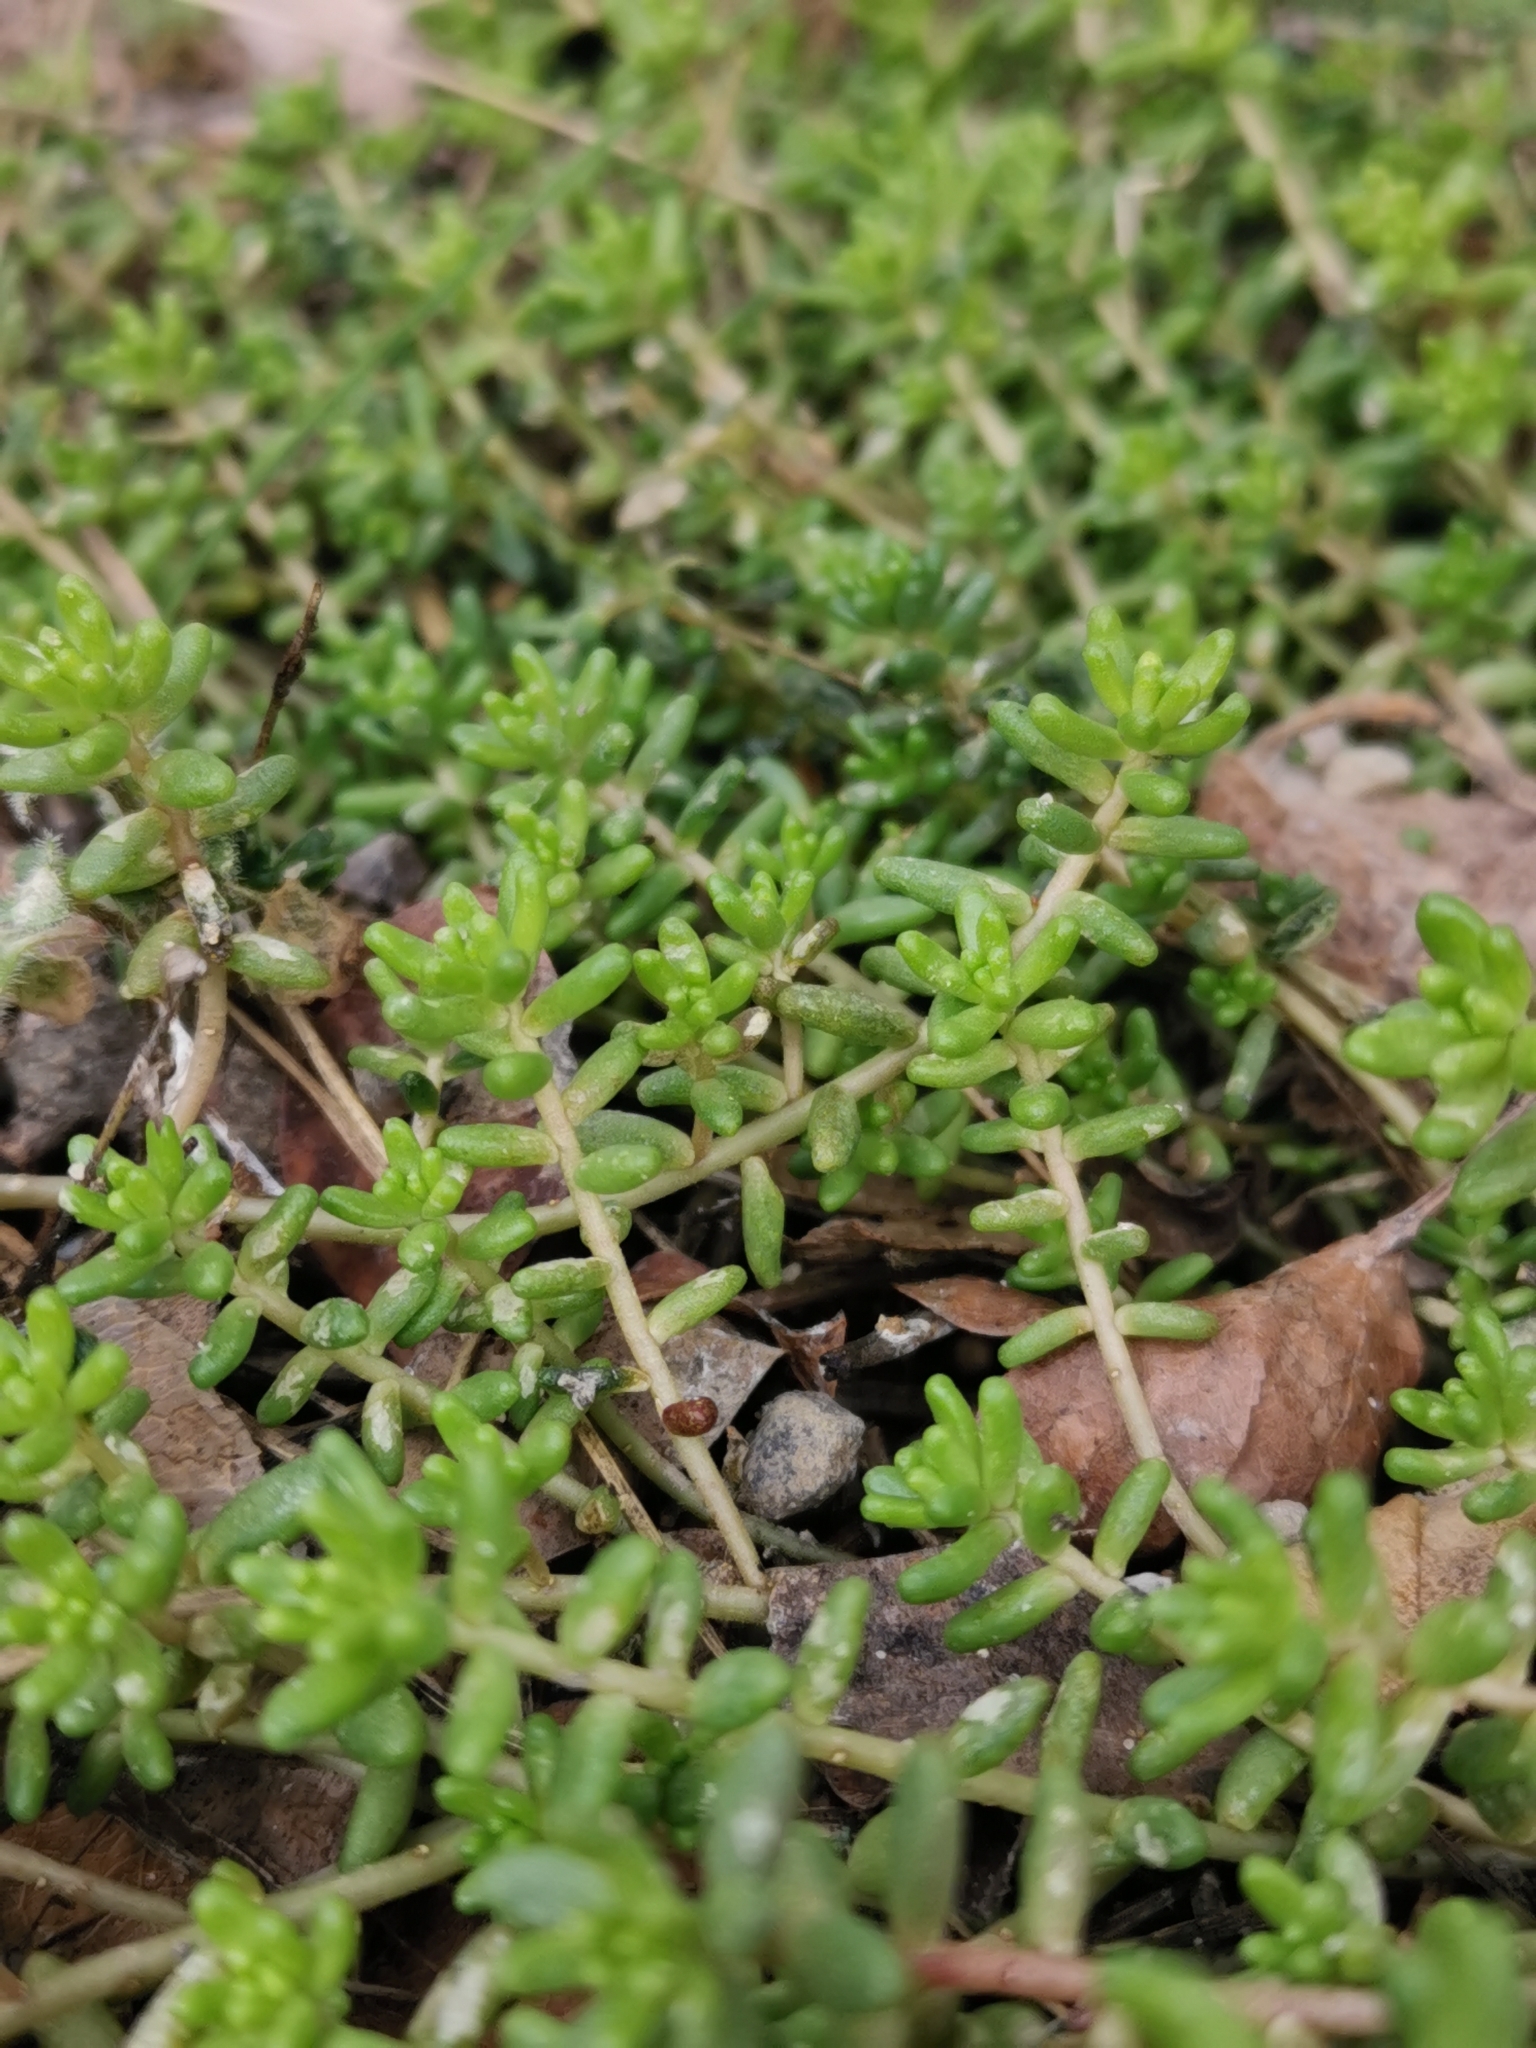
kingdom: Plantae
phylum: Tracheophyta
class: Magnoliopsida
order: Saxifragales
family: Crassulaceae
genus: Sedum
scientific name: Sedum album
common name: White stonecrop
